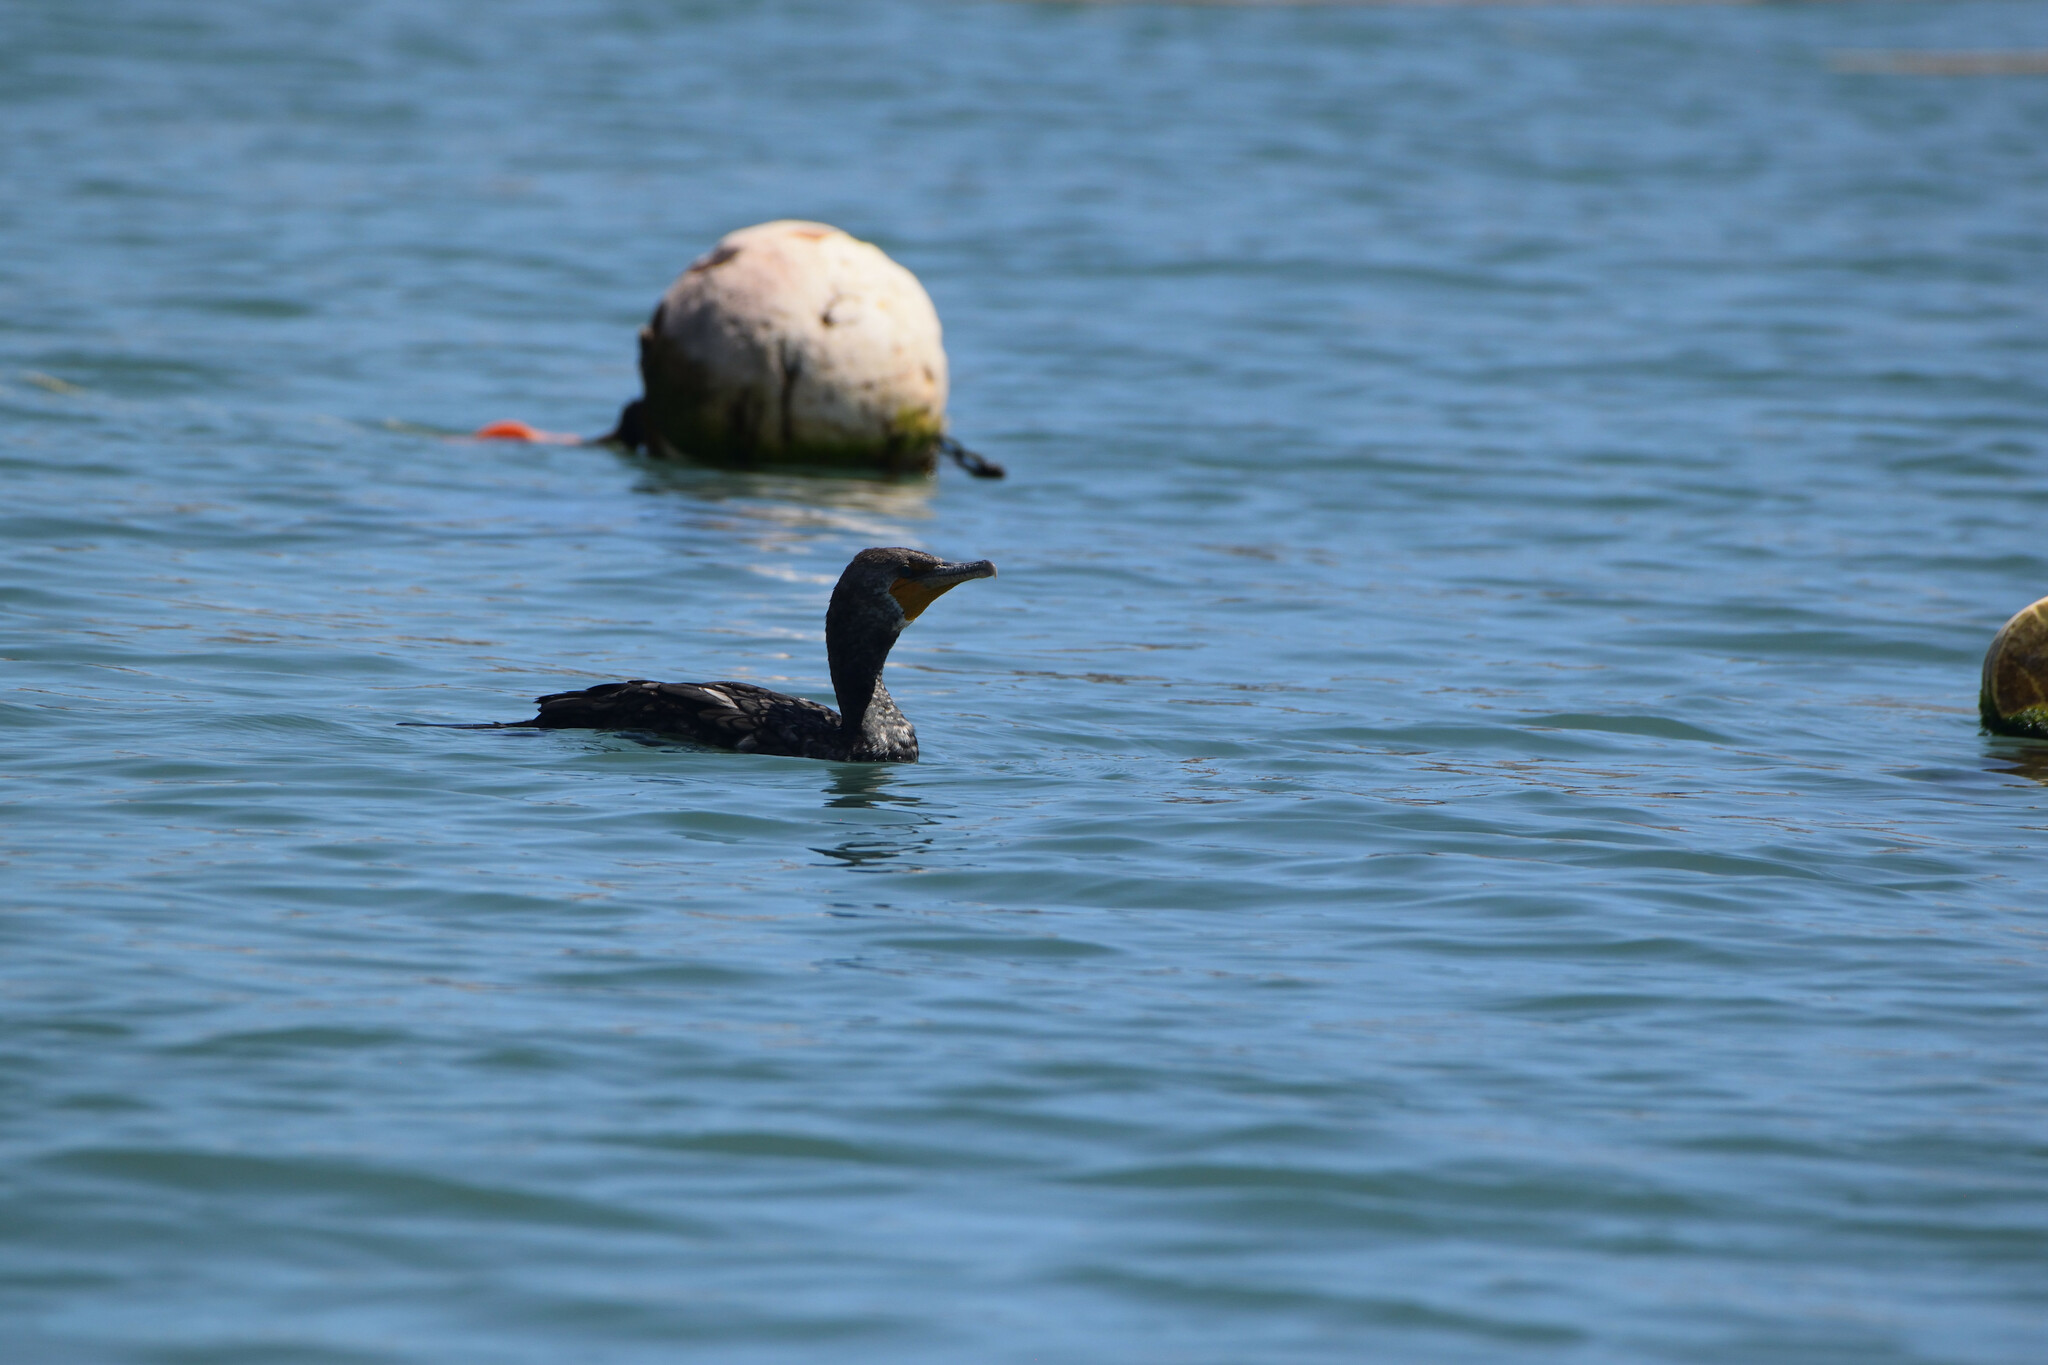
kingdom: Animalia
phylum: Chordata
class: Aves
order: Suliformes
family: Phalacrocoracidae
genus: Phalacrocorax
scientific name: Phalacrocorax auritus
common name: Double-crested cormorant
